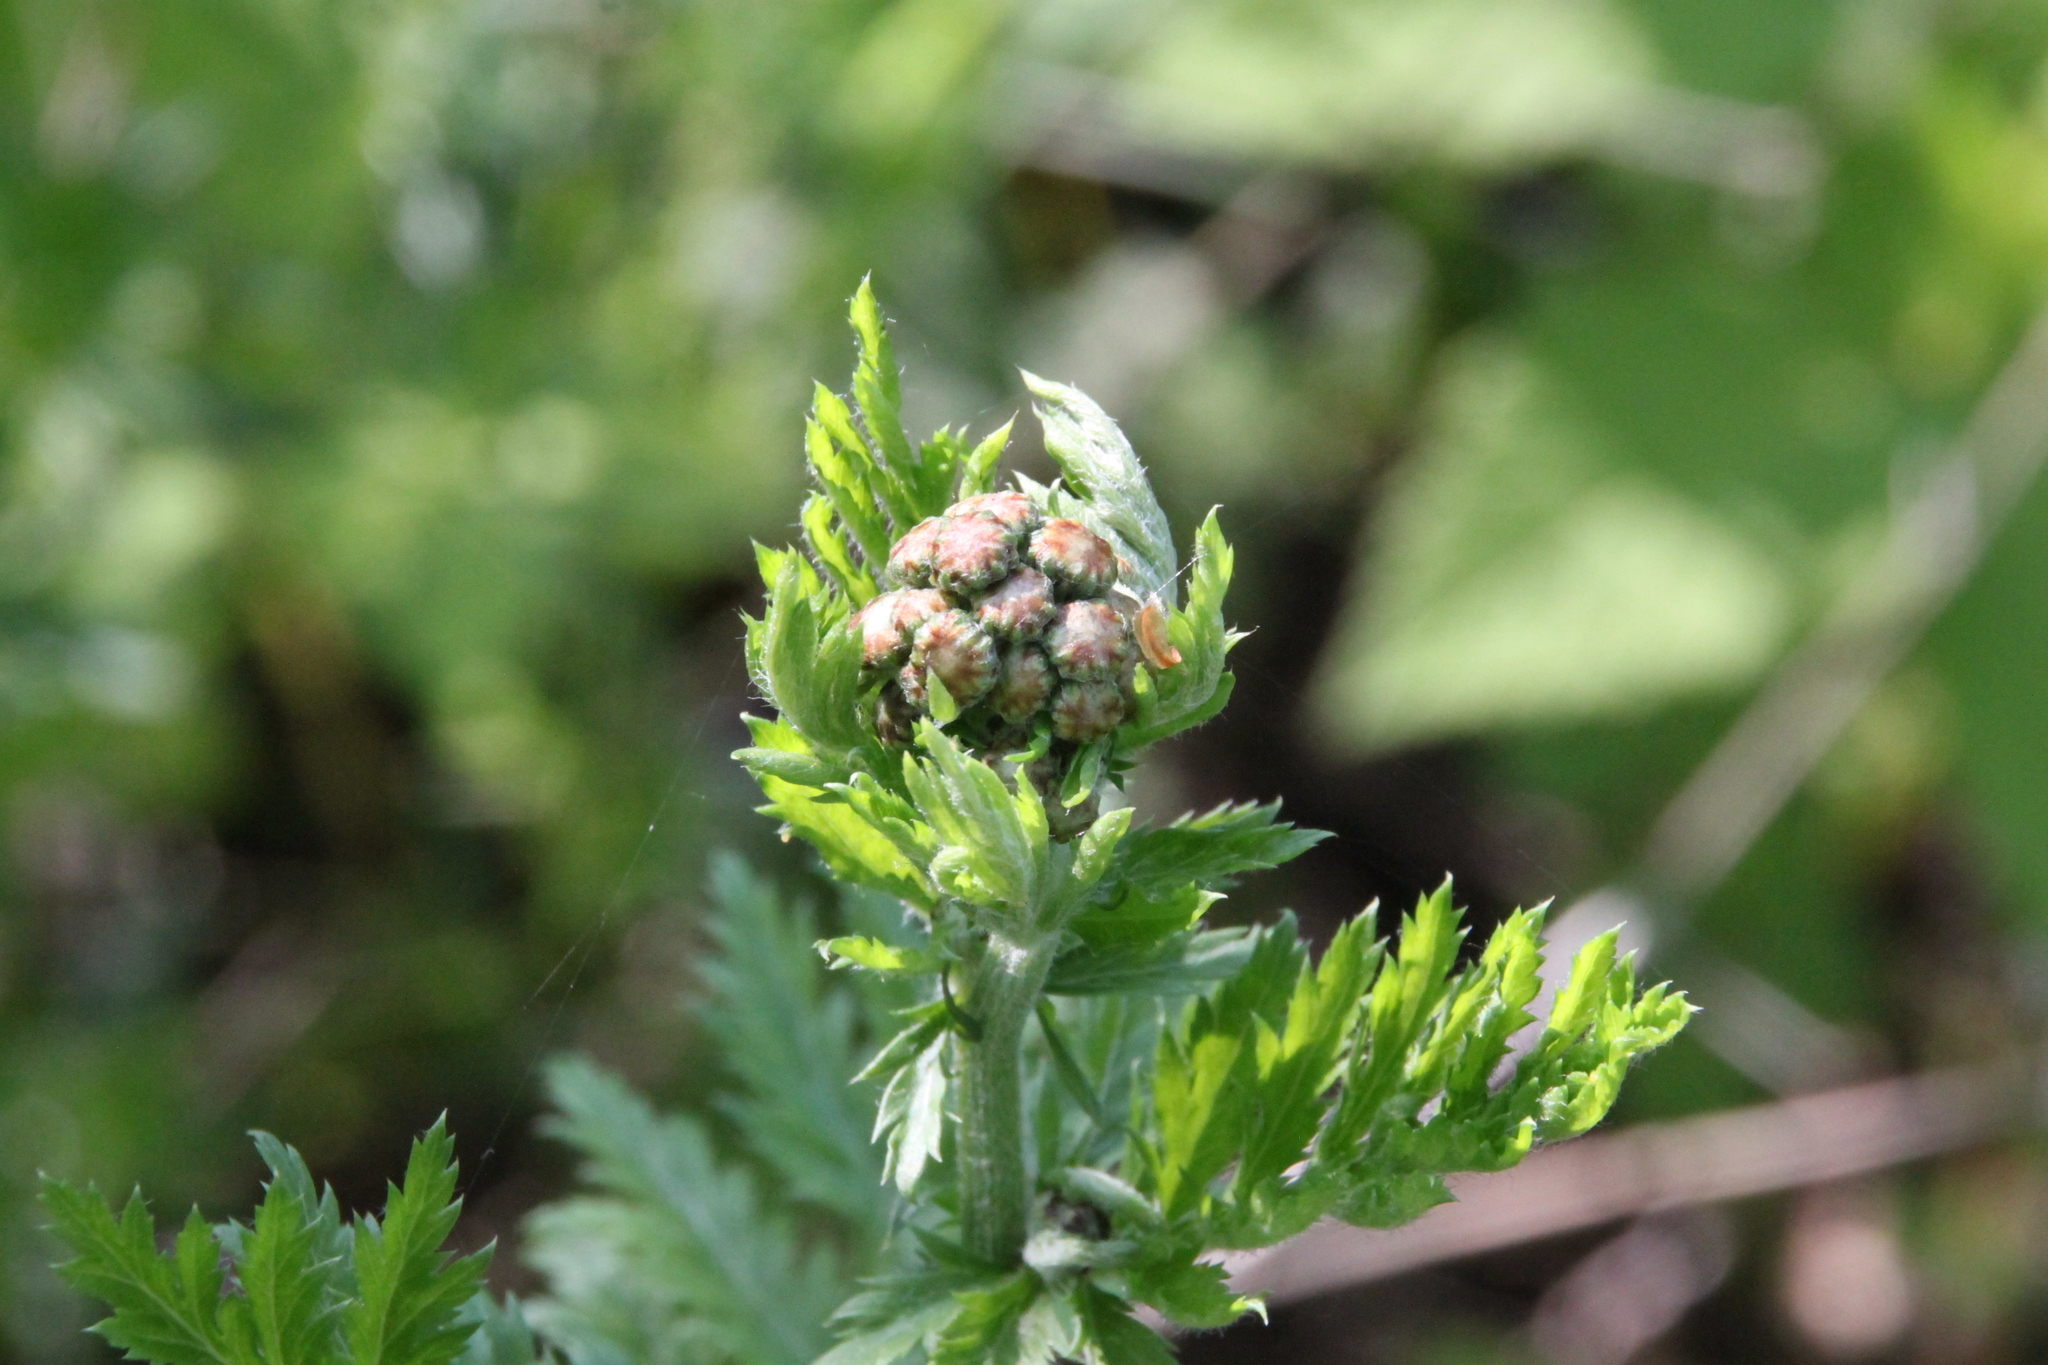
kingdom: Plantae
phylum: Tracheophyta
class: Magnoliopsida
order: Asterales
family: Asteraceae
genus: Tanacetum
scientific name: Tanacetum vulgare
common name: Common tansy
